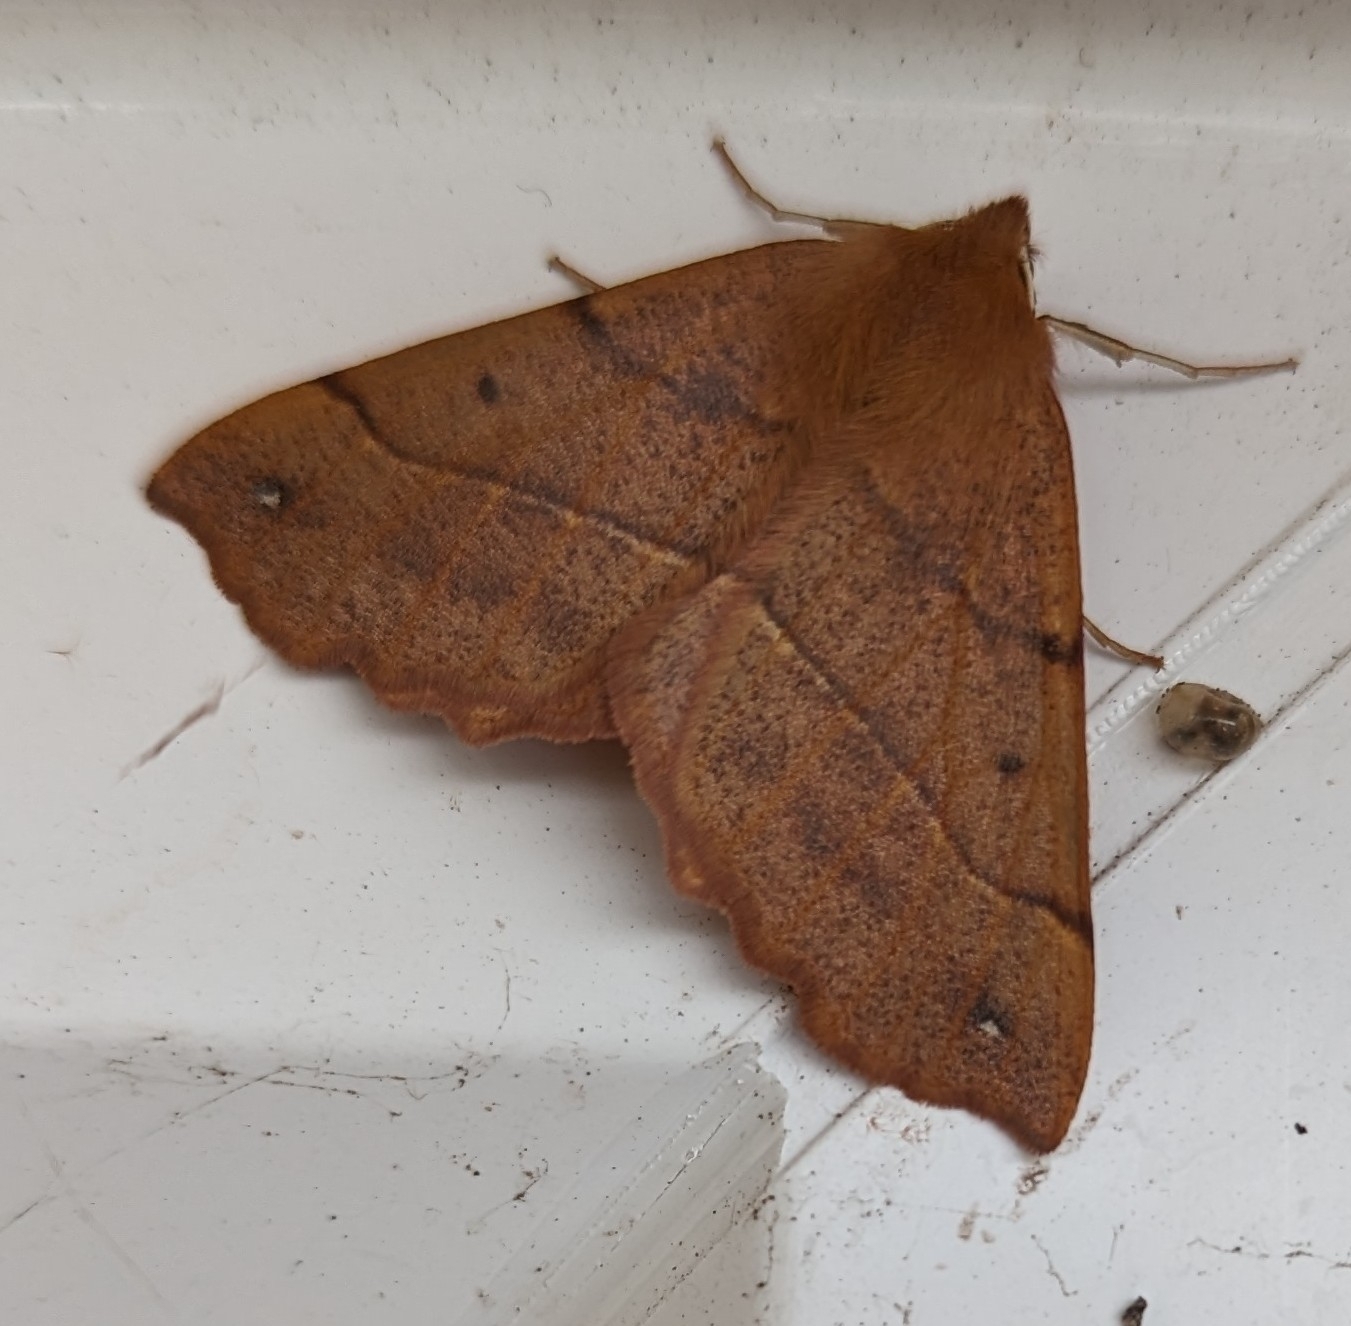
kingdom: Animalia
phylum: Arthropoda
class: Insecta
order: Lepidoptera
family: Geometridae
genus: Colotois
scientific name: Colotois pennaria
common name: Feathered thorn
